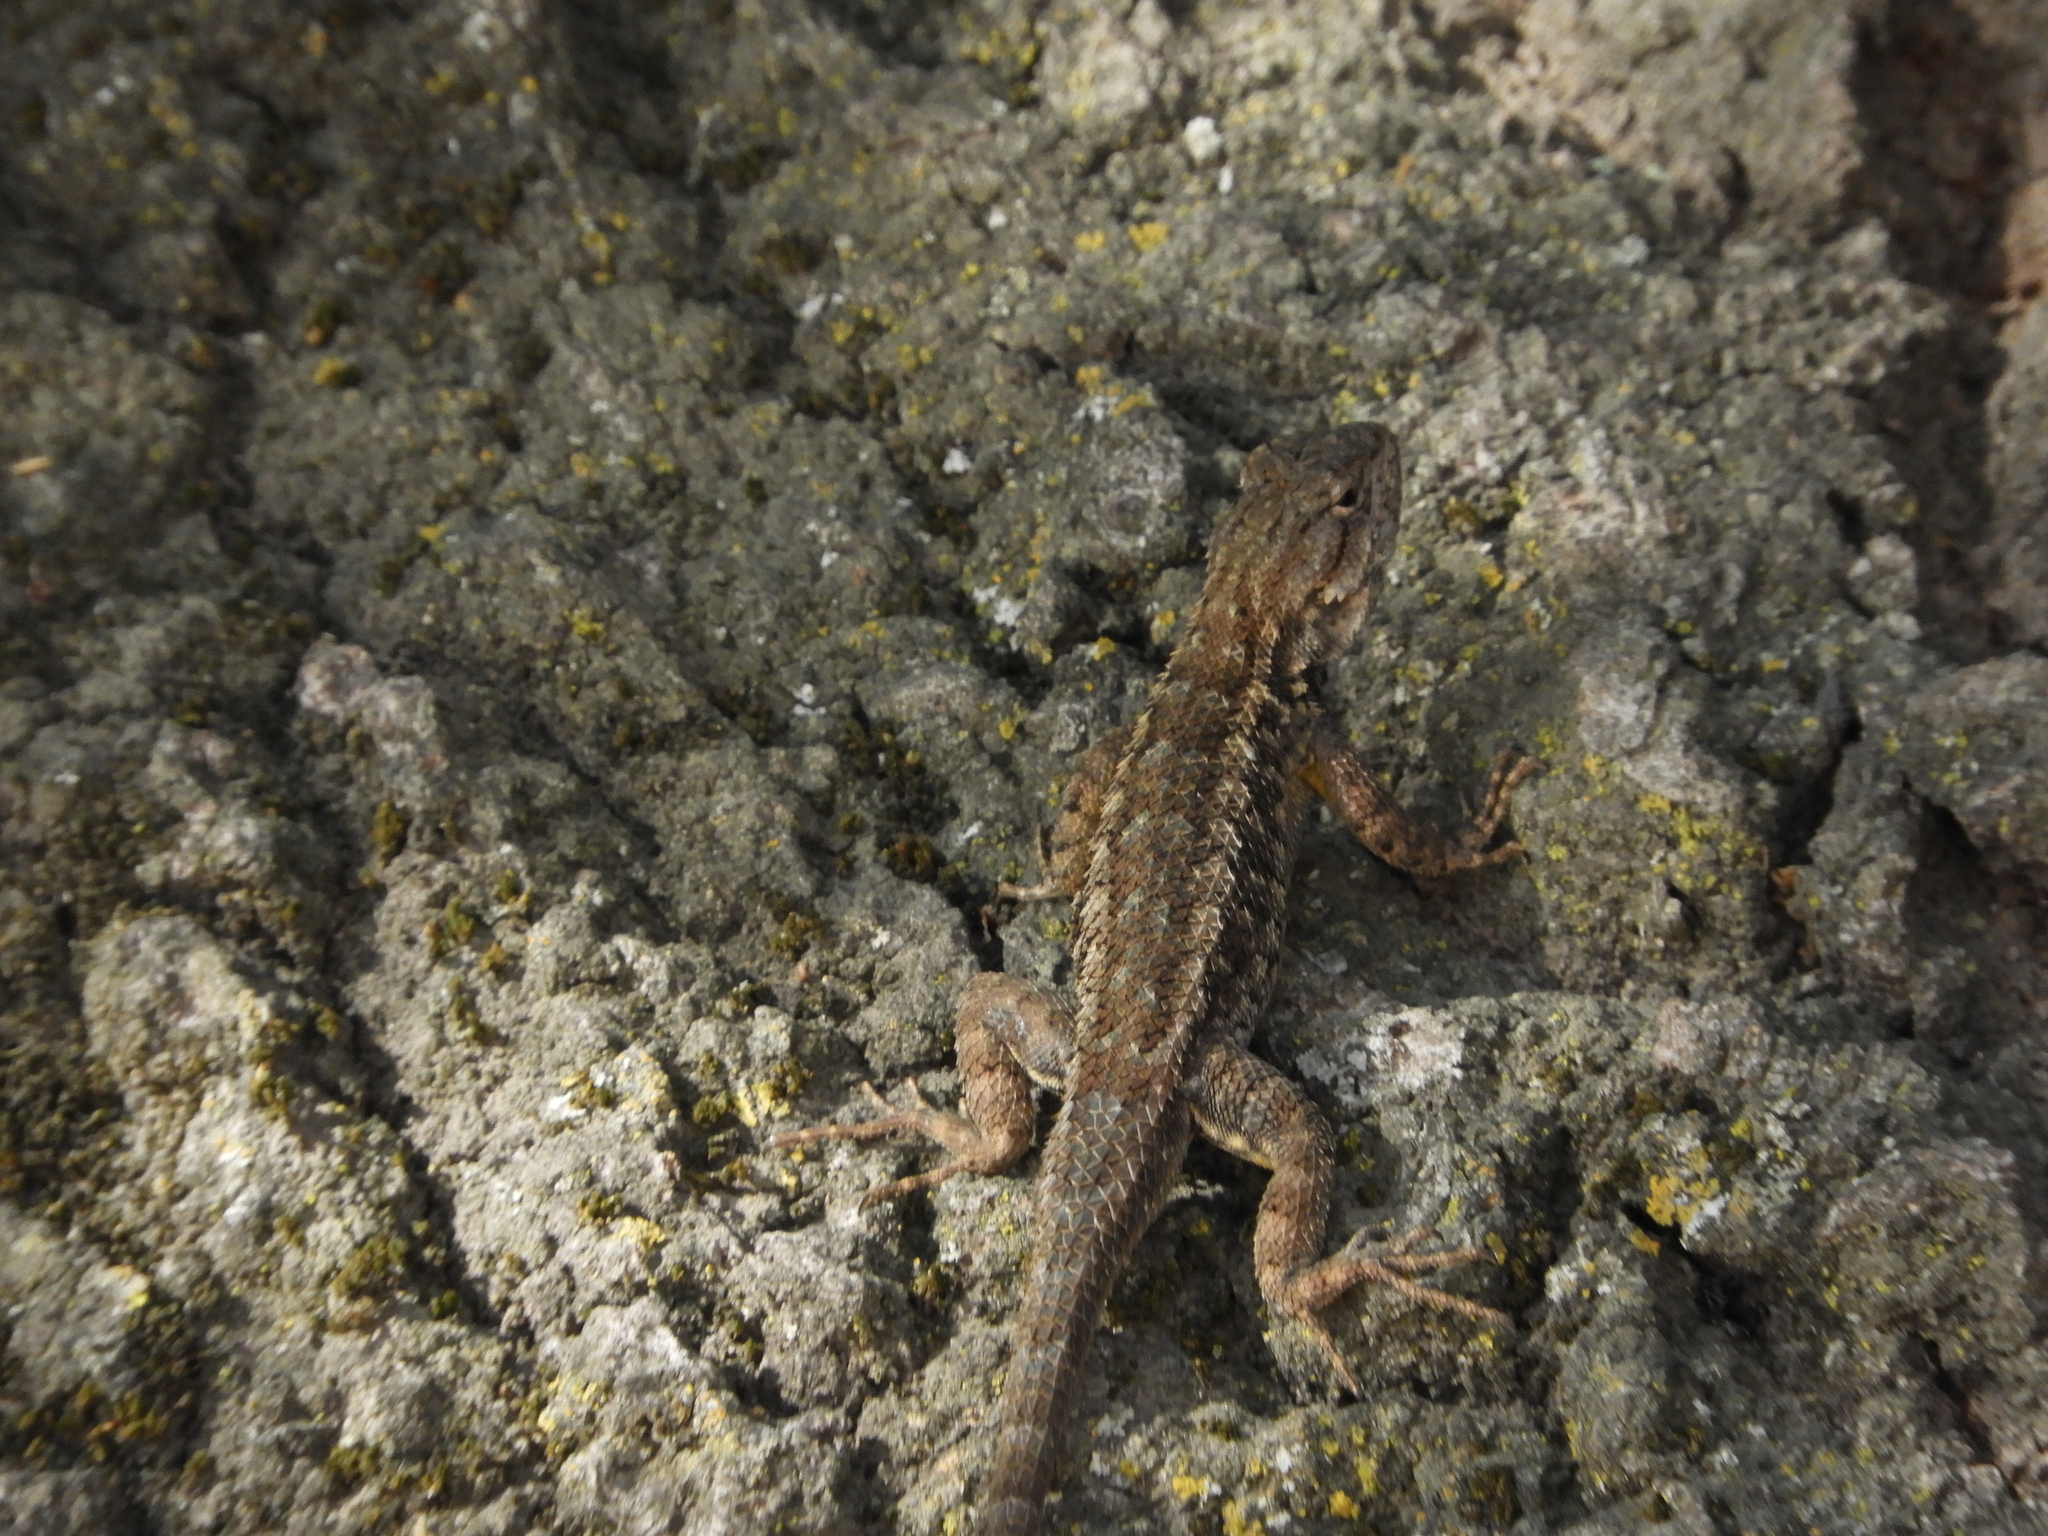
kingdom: Animalia
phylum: Chordata
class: Squamata
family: Phrynosomatidae
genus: Sceloporus
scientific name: Sceloporus occidentalis
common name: Western fence lizard
